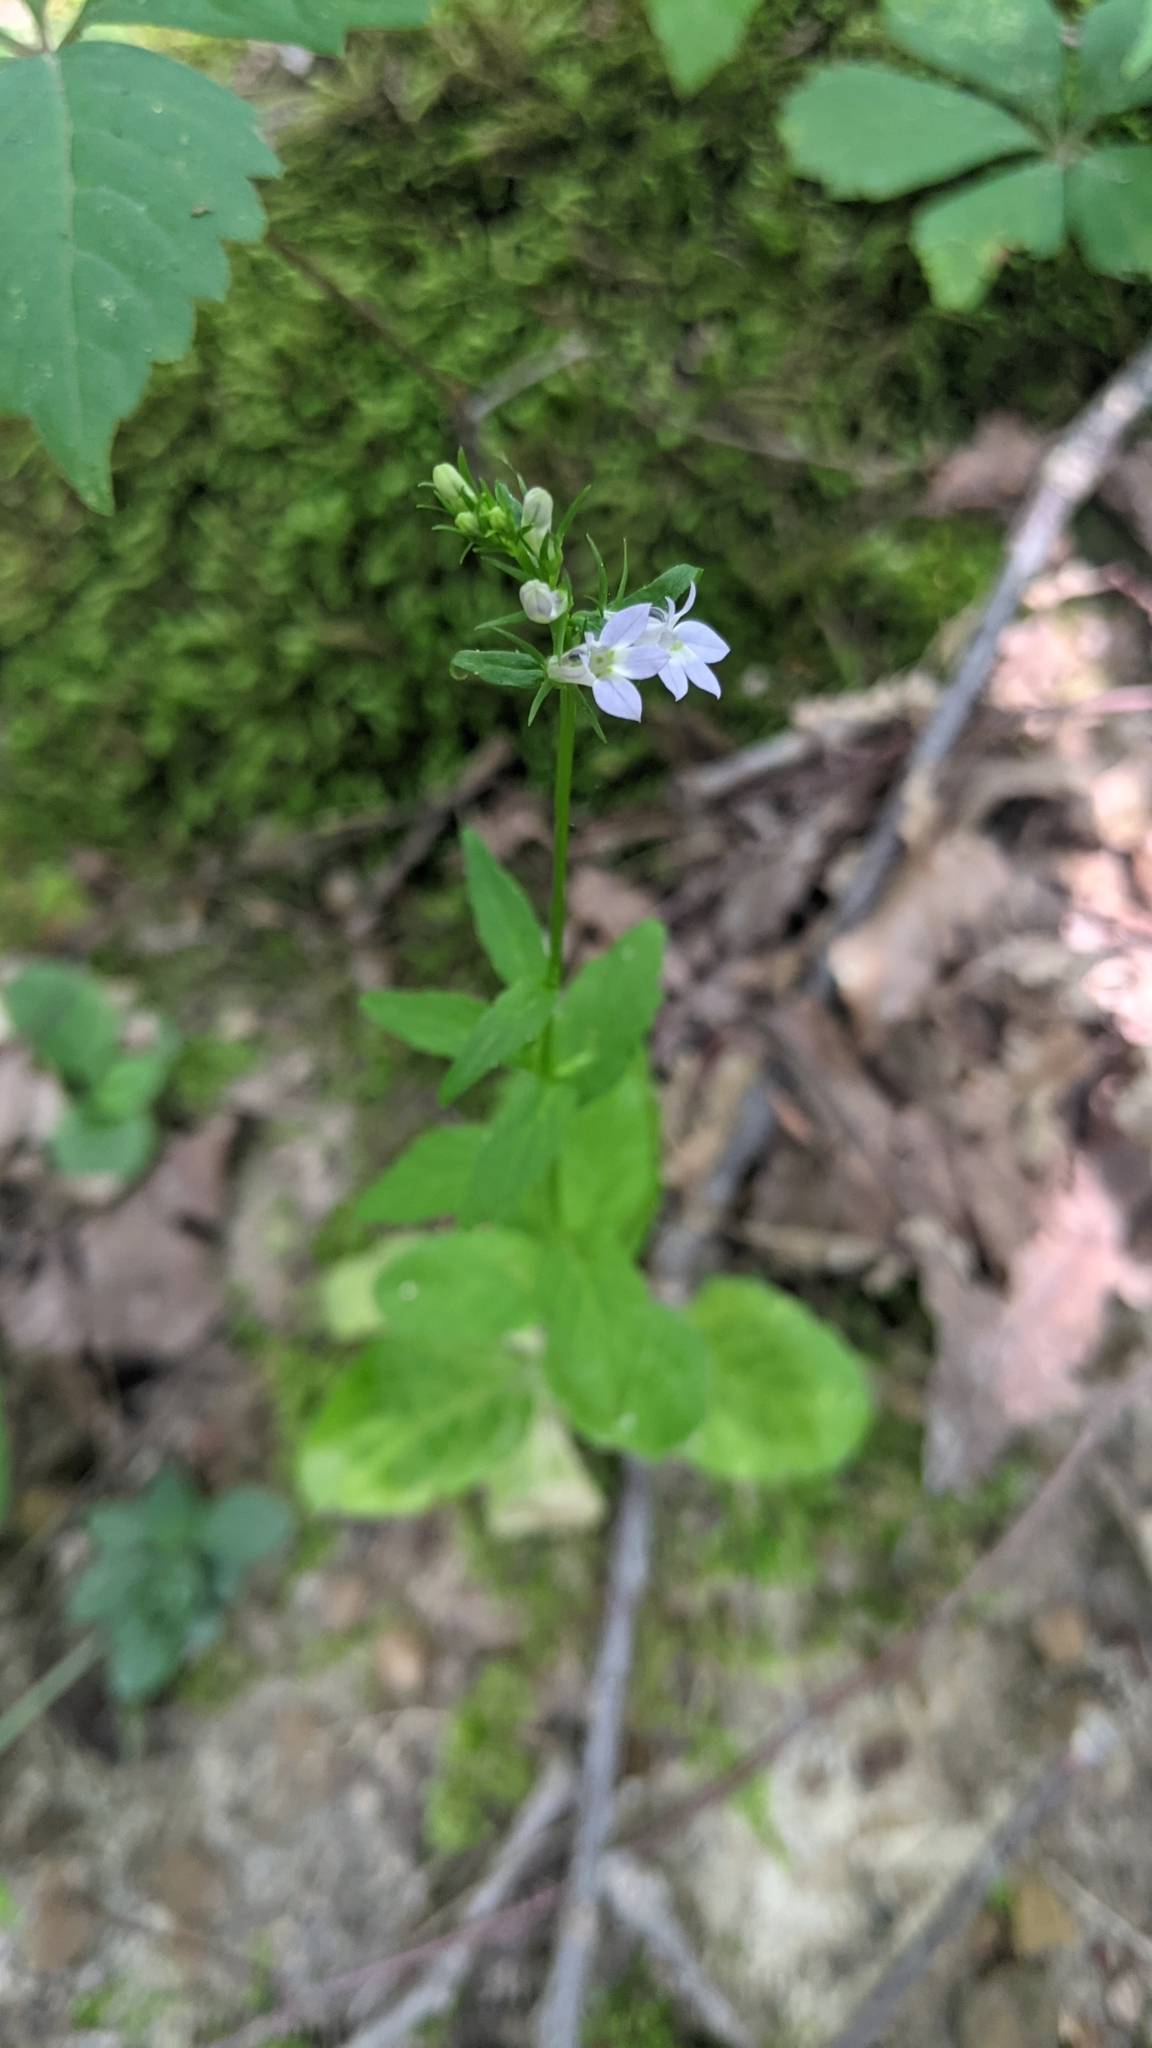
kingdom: Plantae
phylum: Tracheophyta
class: Magnoliopsida
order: Asterales
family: Campanulaceae
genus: Lobelia
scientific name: Lobelia inflata
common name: Indian tobacco
